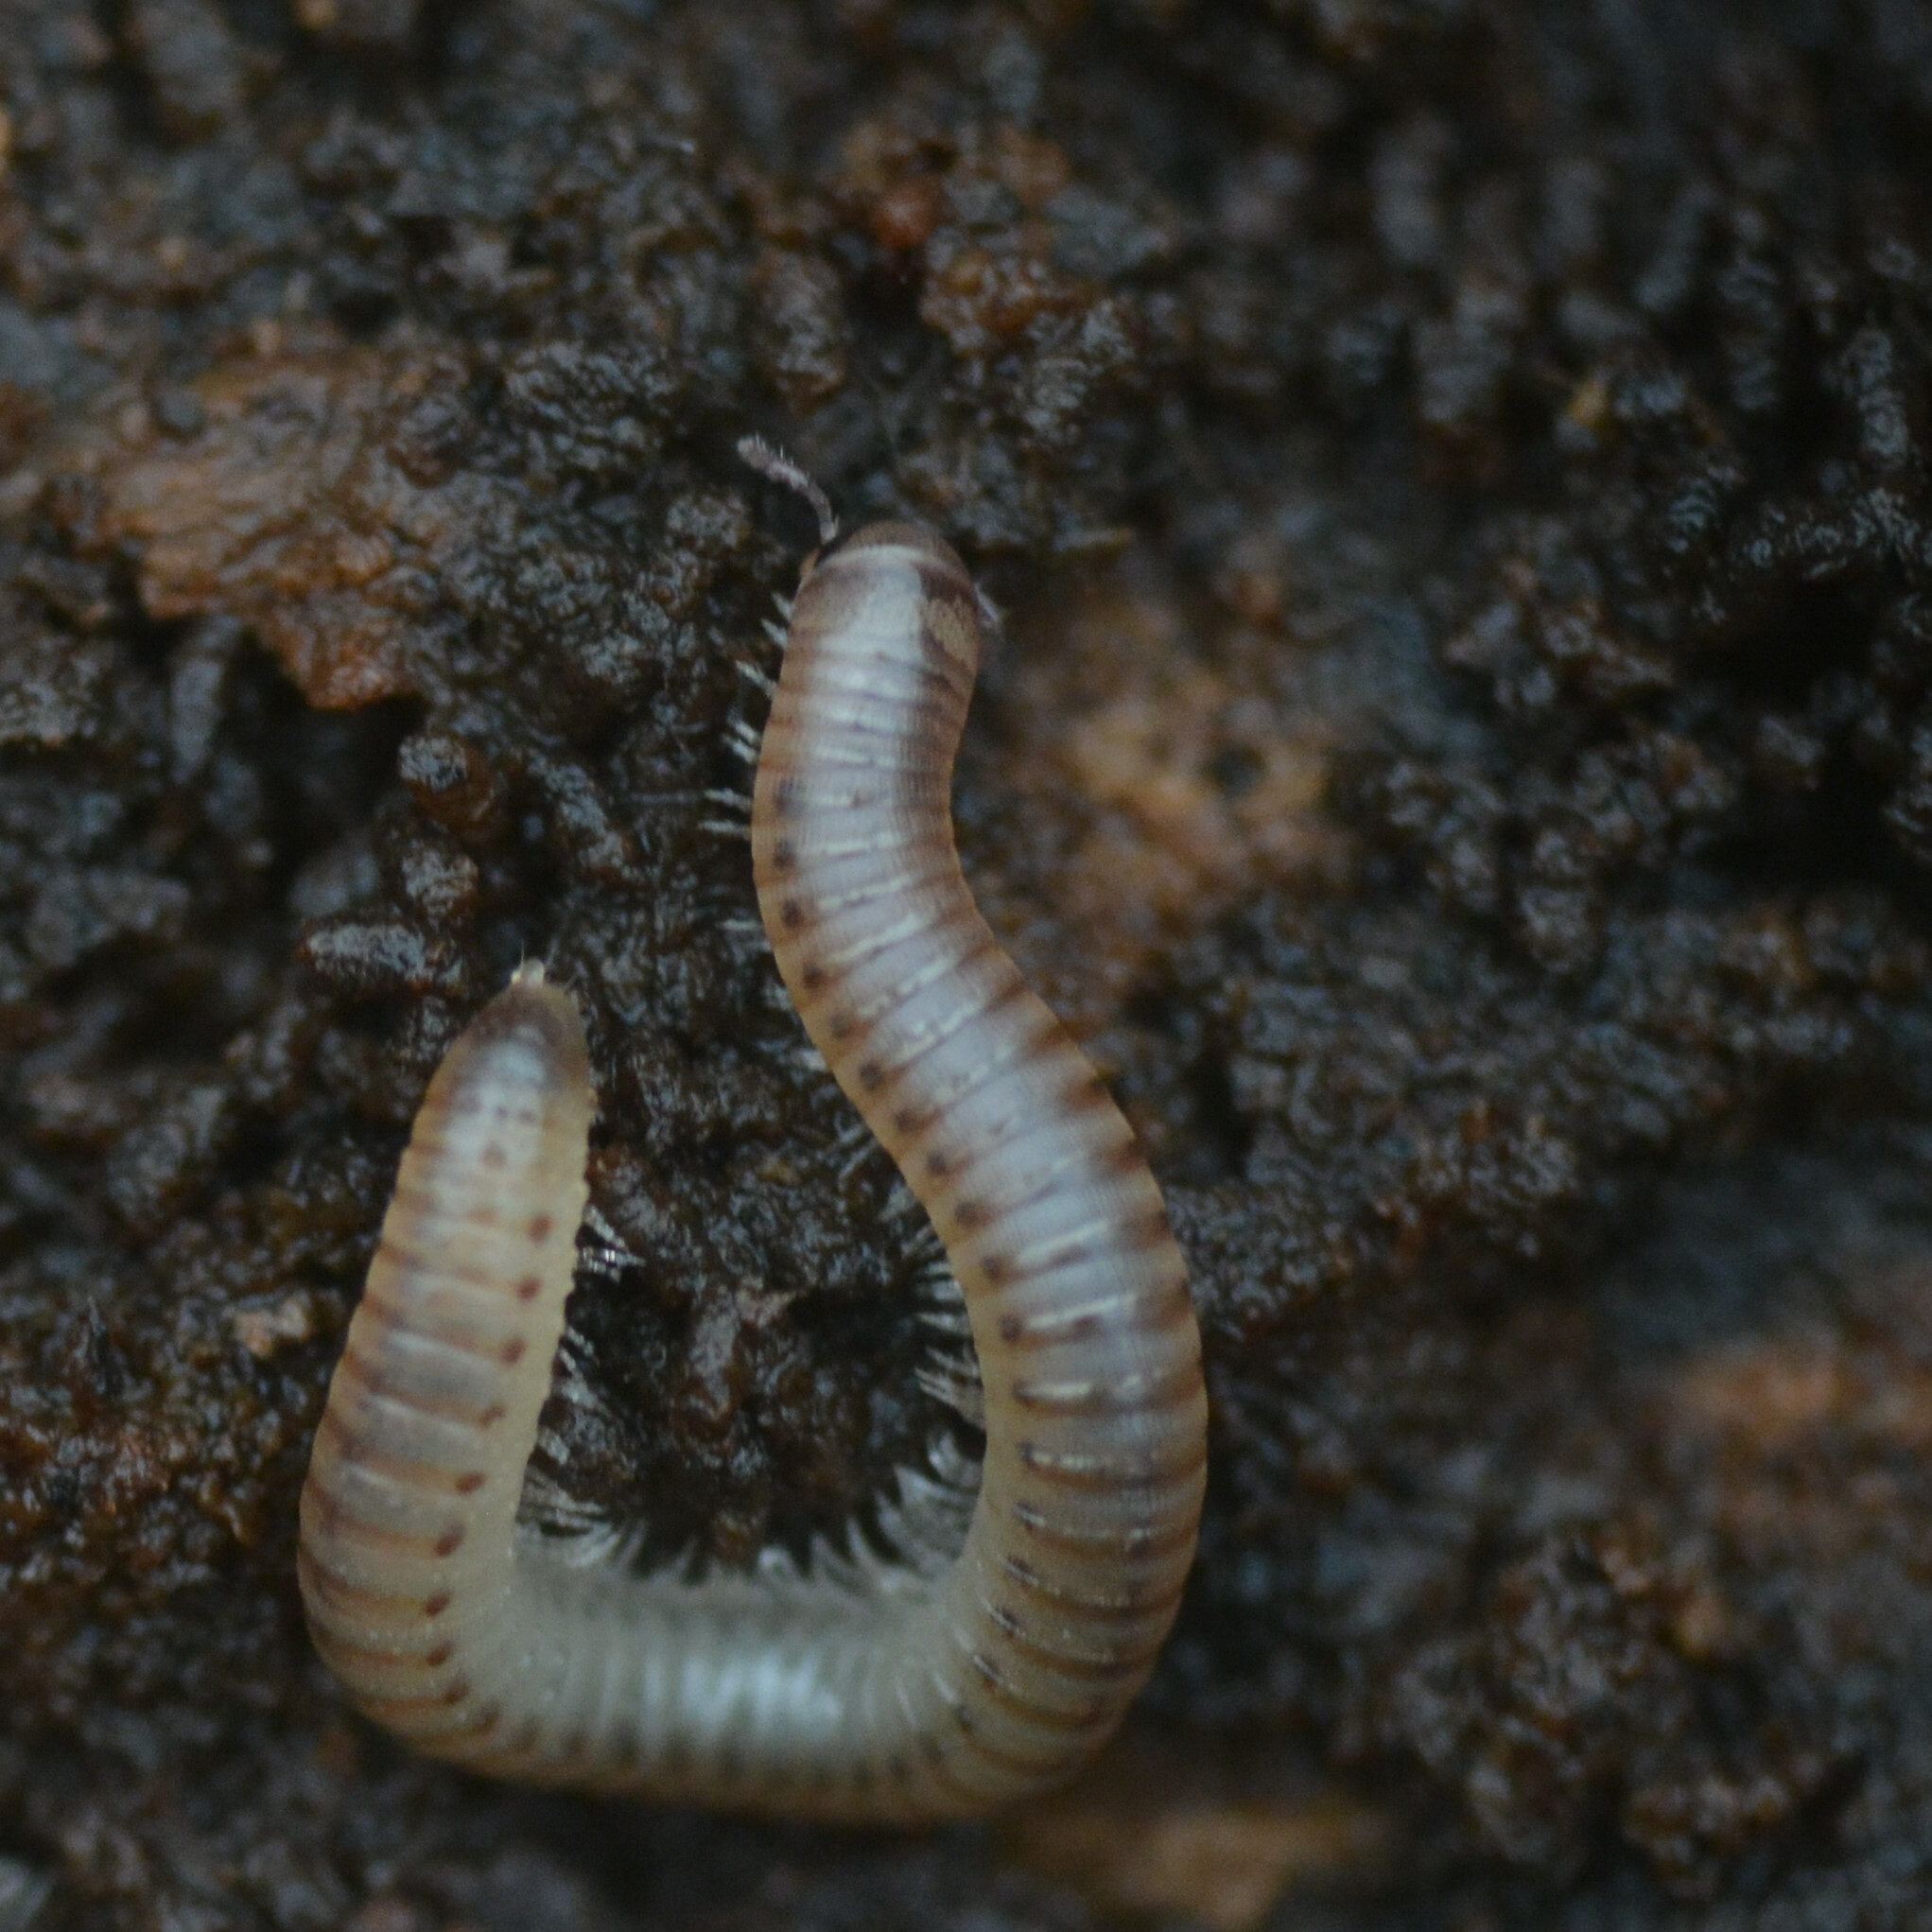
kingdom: Animalia
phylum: Arthropoda
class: Diplopoda
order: Julida
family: Julidae
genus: Cylindroiulus
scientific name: Cylindroiulus punctatus
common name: Blunt-tailed millipede
